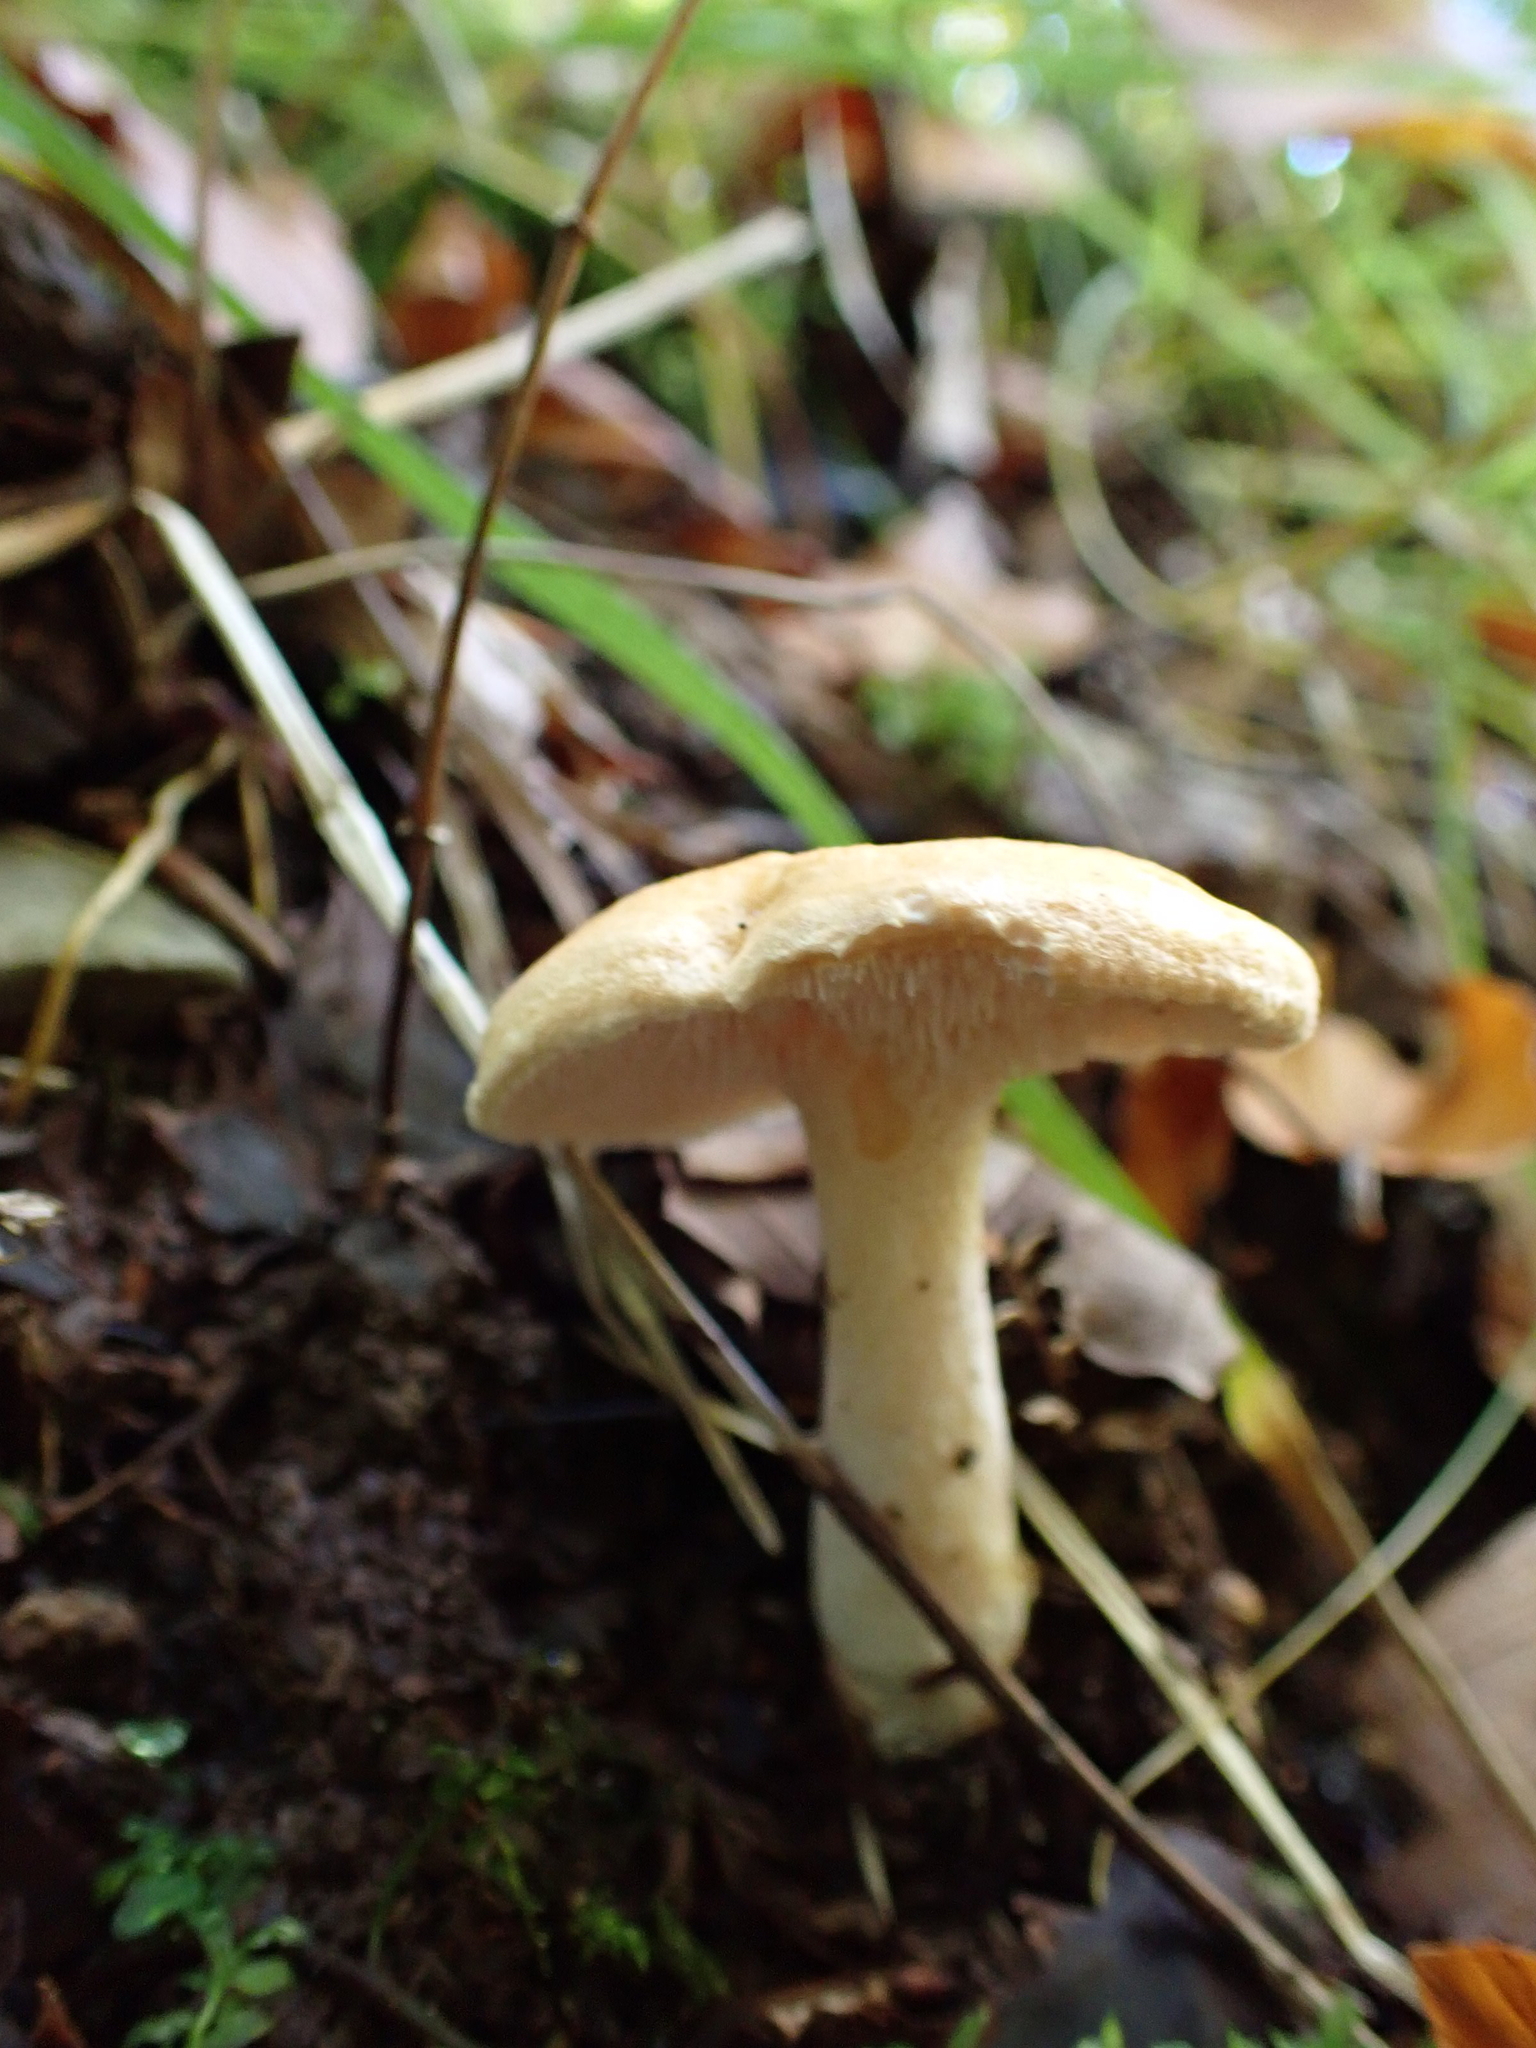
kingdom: Fungi
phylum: Basidiomycota
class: Agaricomycetes
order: Cantharellales
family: Hydnaceae
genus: Hydnum
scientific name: Hydnum repandum
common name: Wood hedgehog
